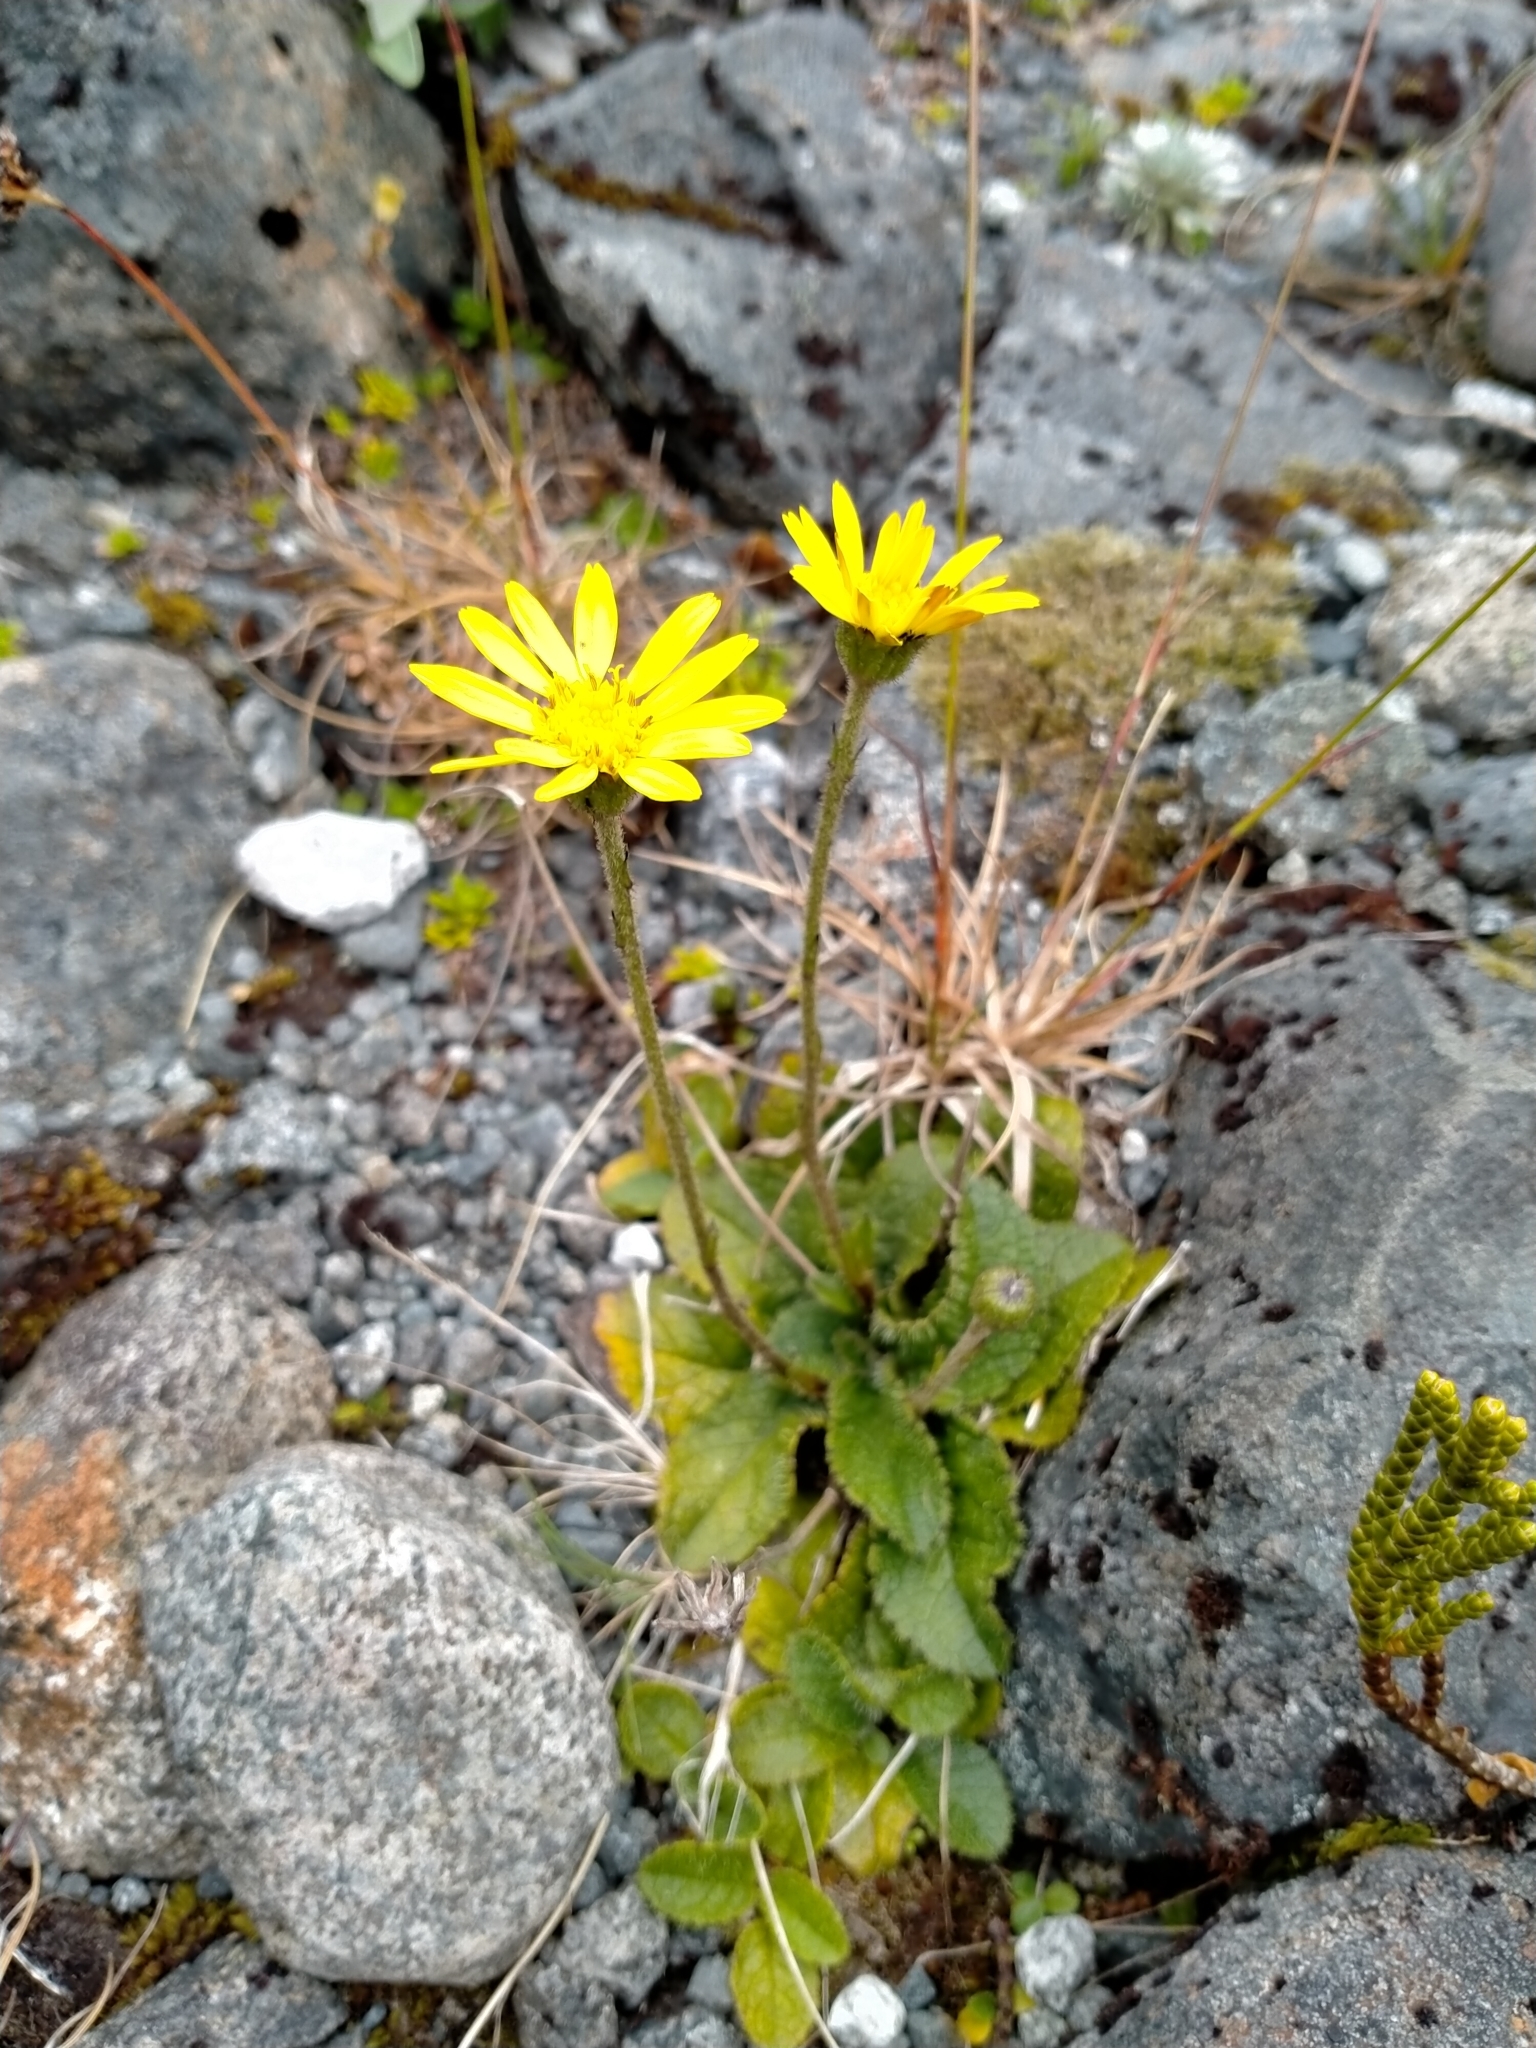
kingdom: Plantae
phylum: Tracheophyta
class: Magnoliopsida
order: Asterales
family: Asteraceae
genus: Brachyglottis
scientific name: Brachyglottis bellidioides
